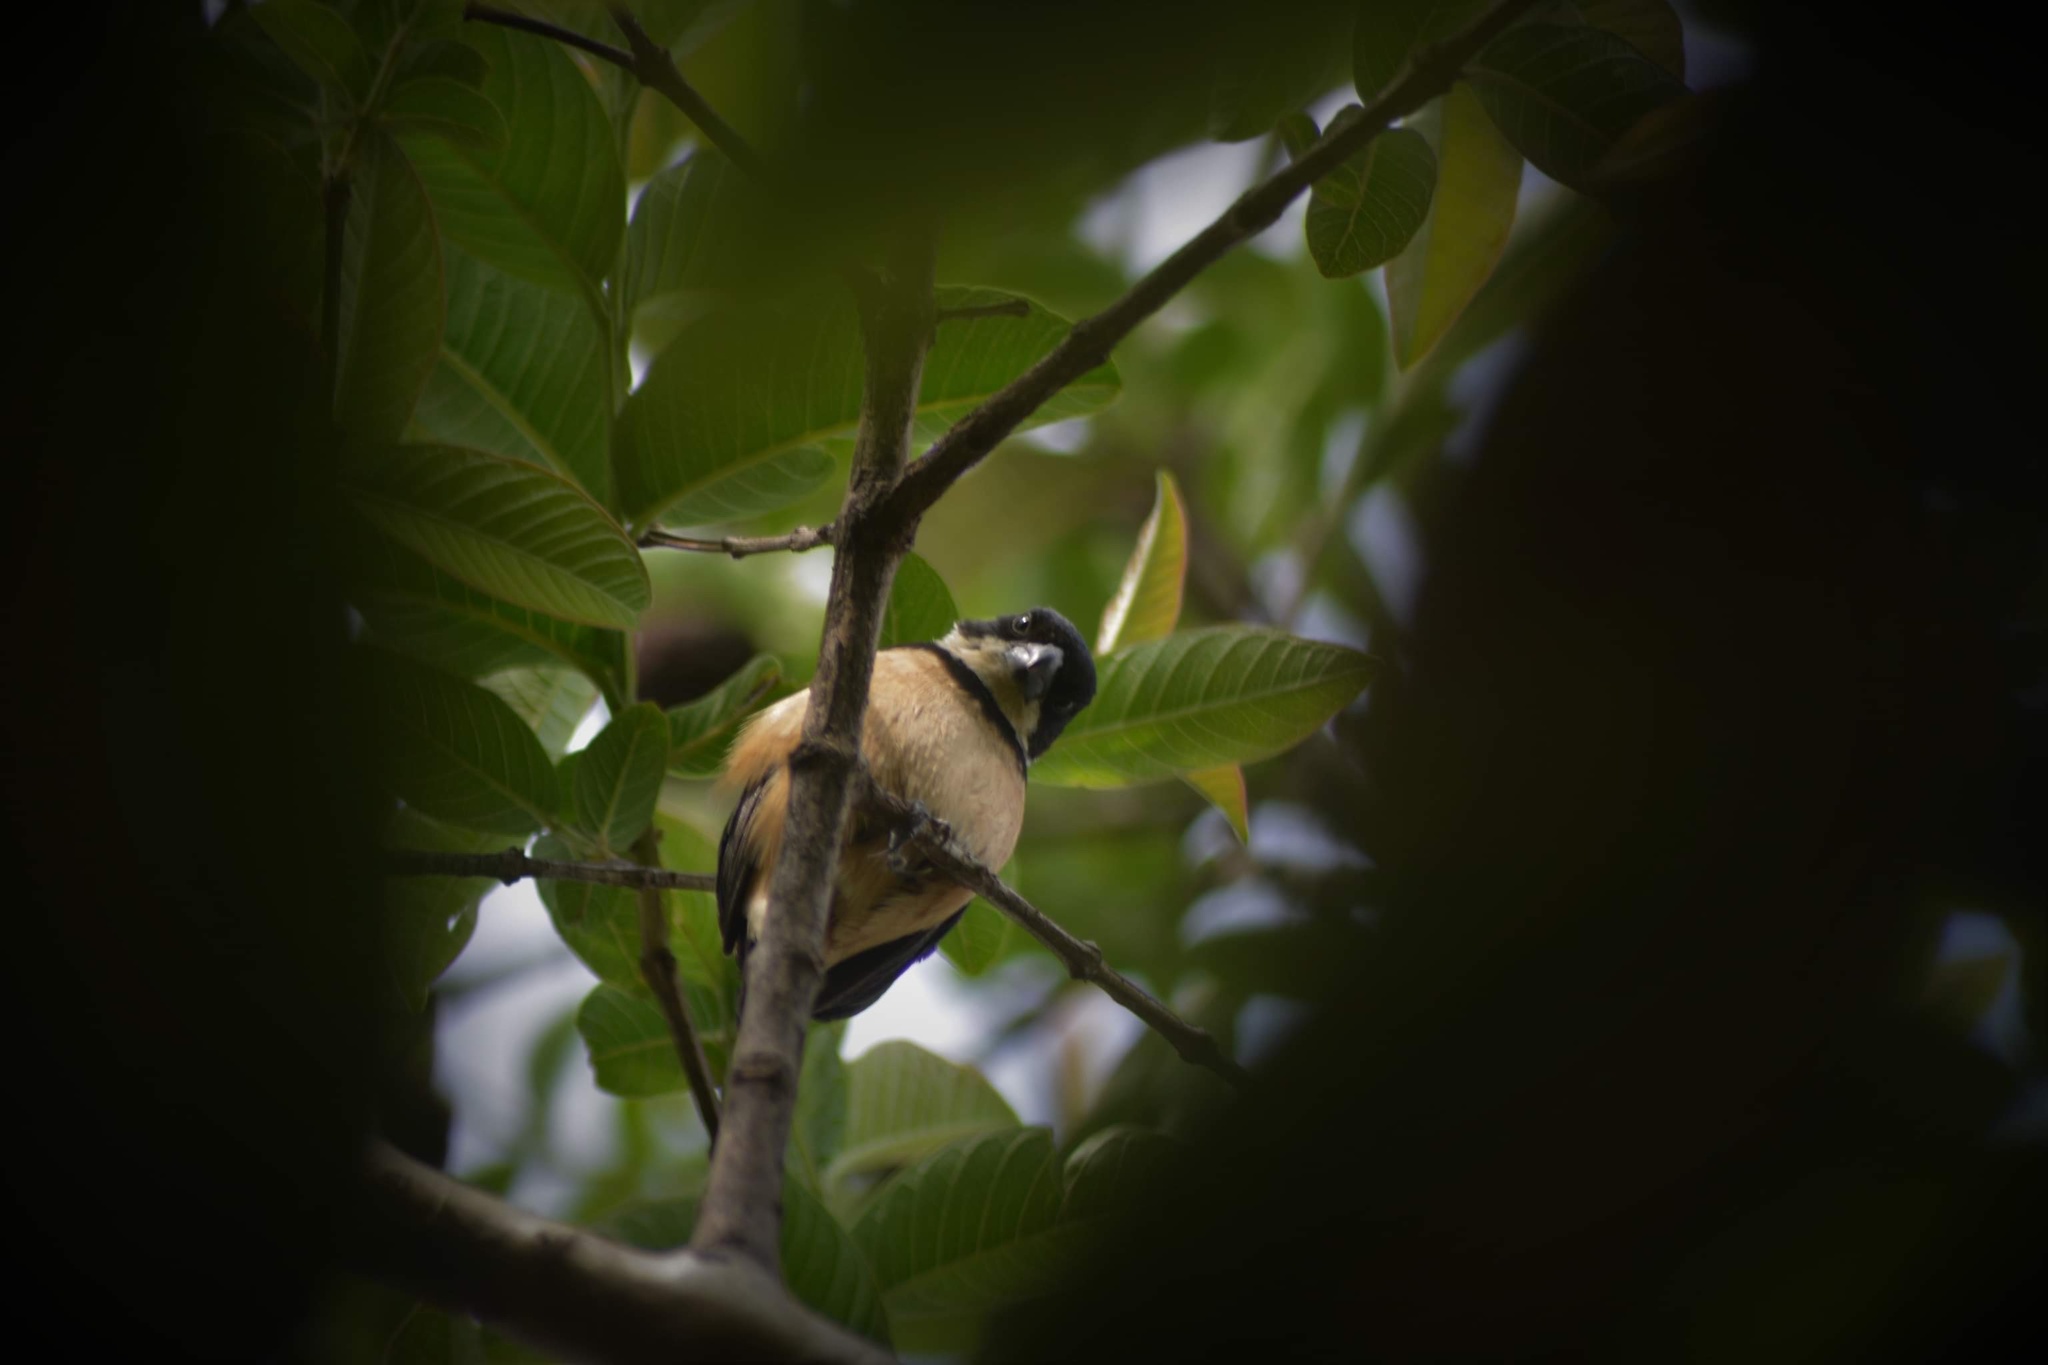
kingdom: Animalia
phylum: Chordata
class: Aves
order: Passeriformes
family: Thraupidae
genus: Sporophila
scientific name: Sporophila torqueola
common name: White-collared seedeater
